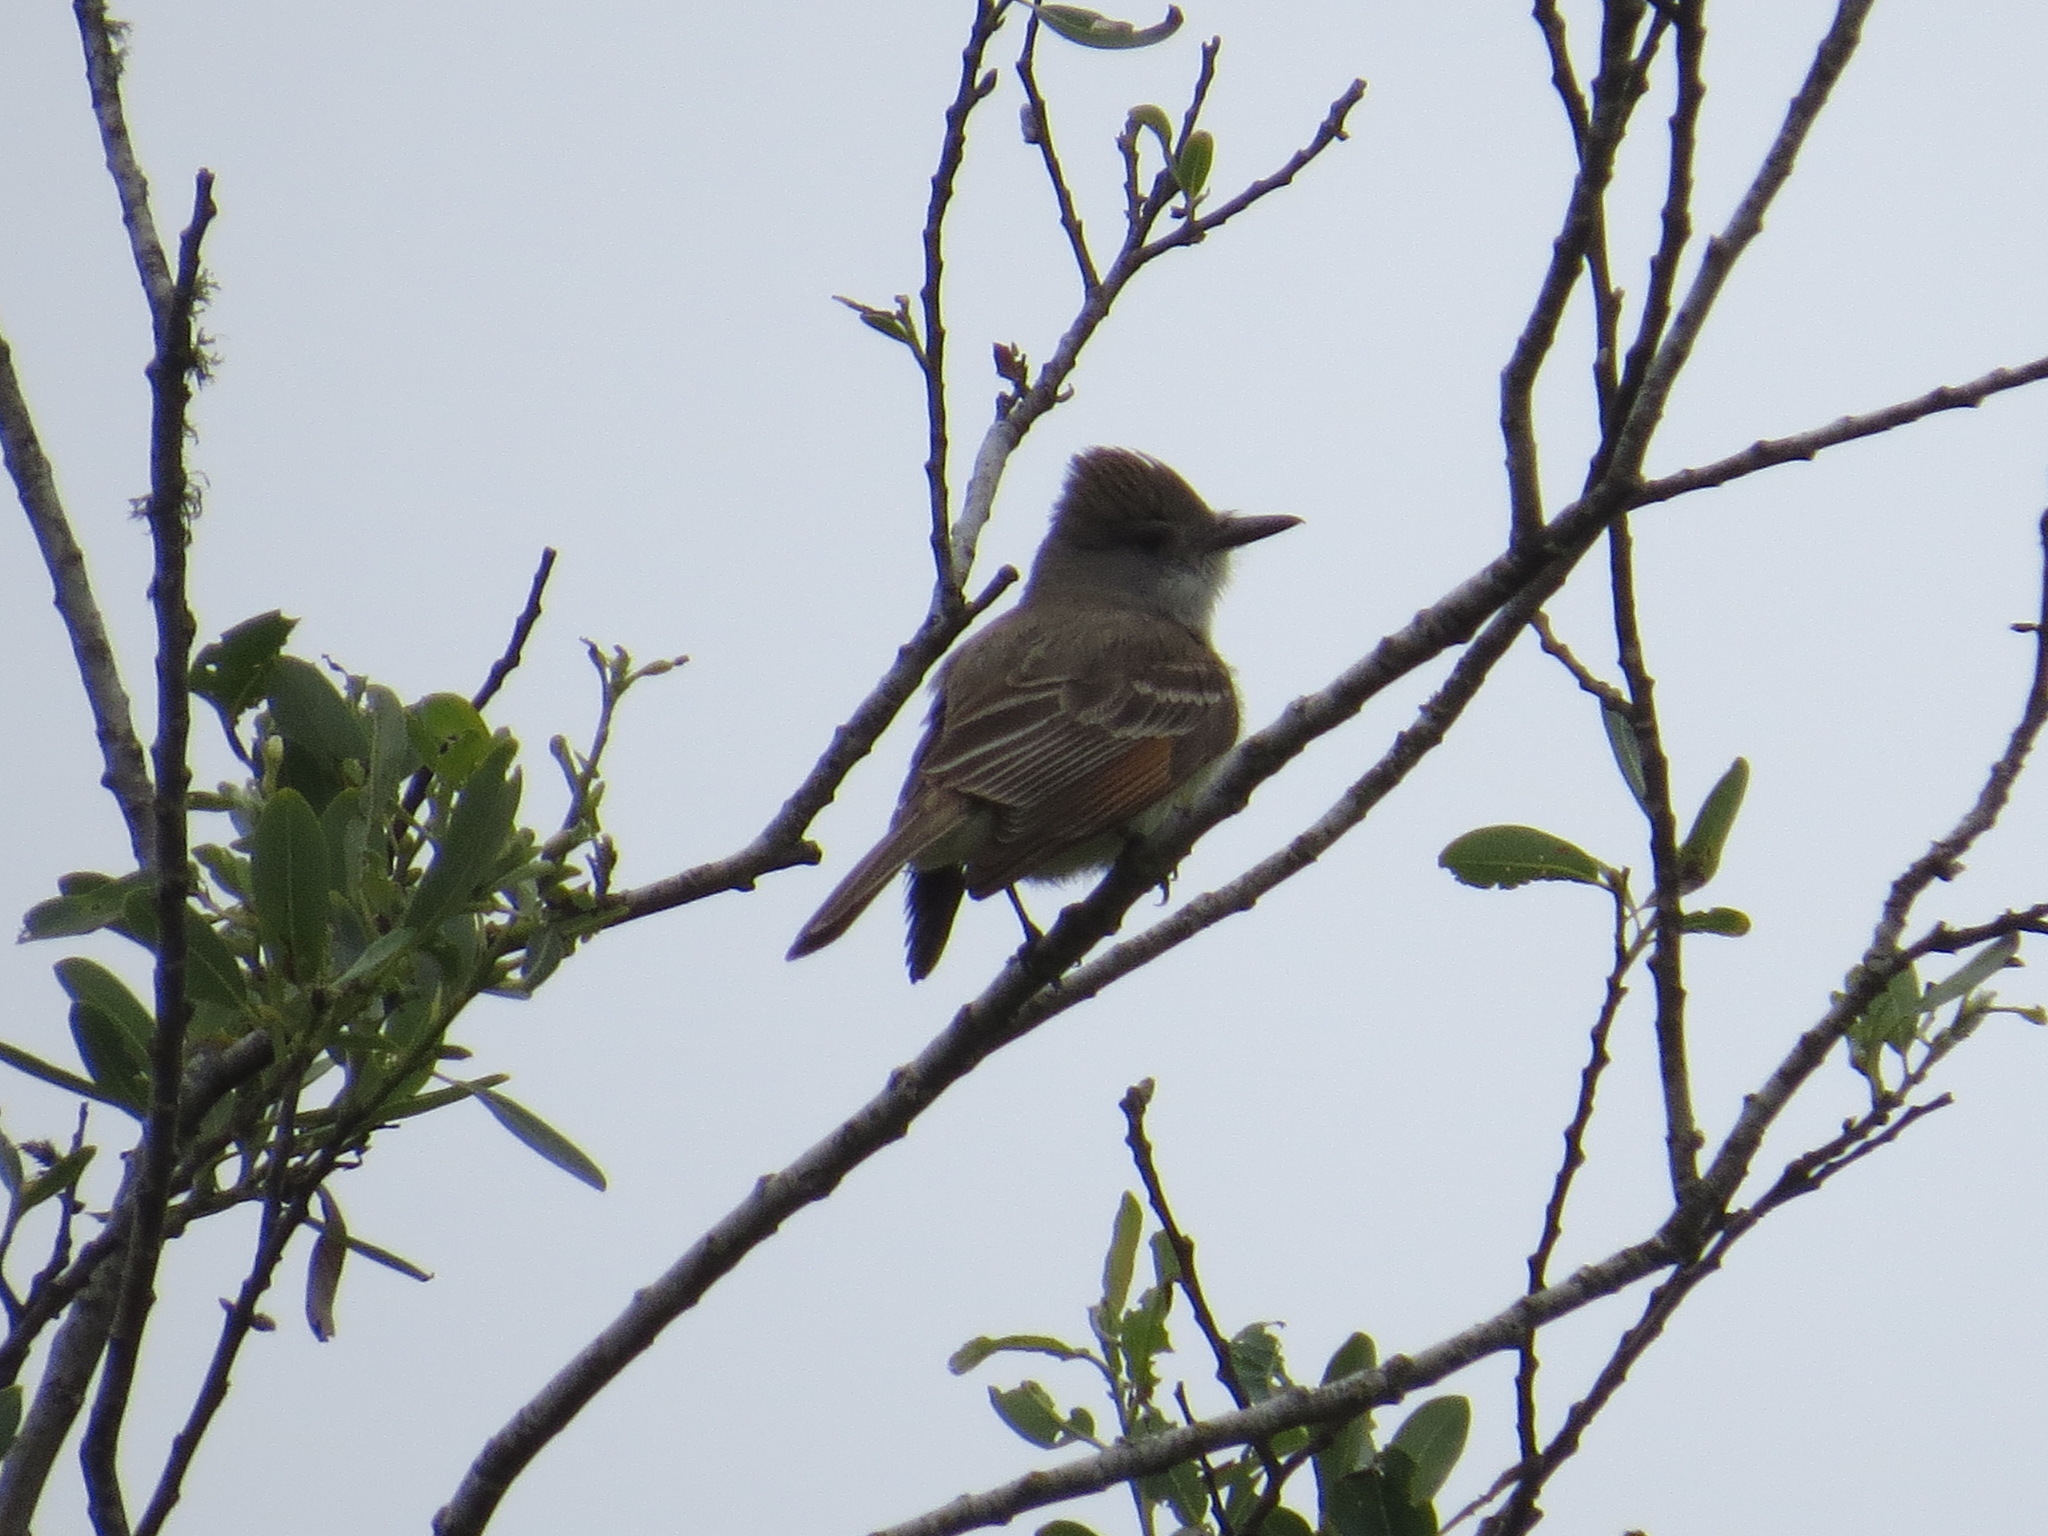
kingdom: Animalia
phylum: Chordata
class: Aves
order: Passeriformes
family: Tyrannidae
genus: Myiarchus
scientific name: Myiarchus cinerascens
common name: Ash-throated flycatcher
